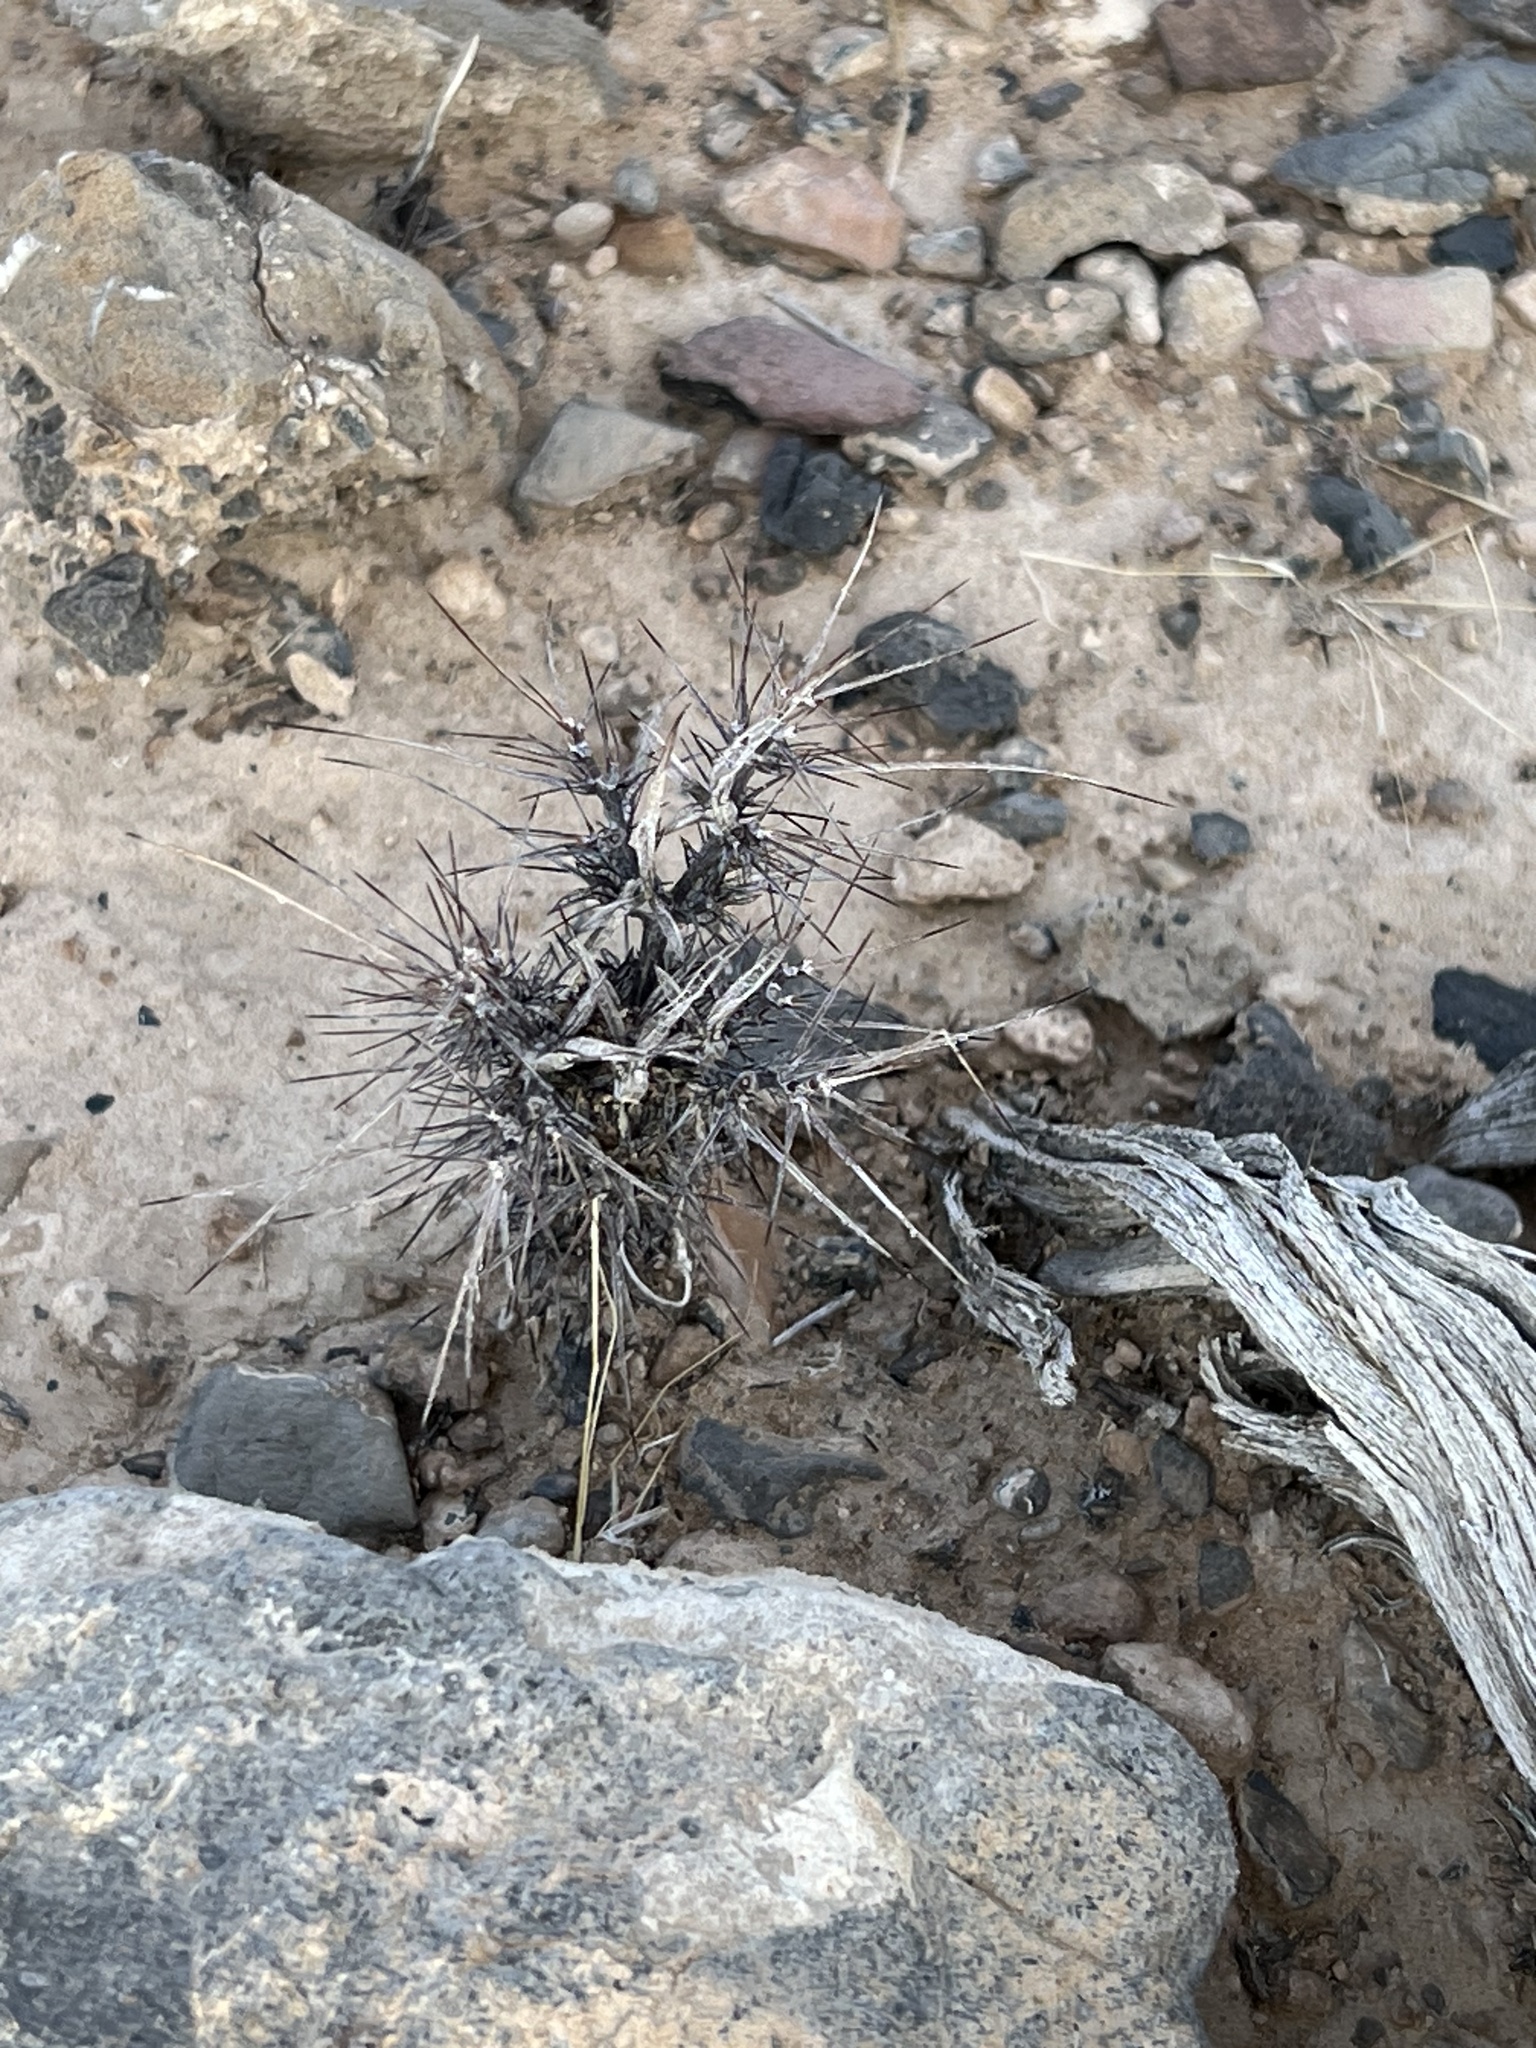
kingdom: Plantae
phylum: Tracheophyta
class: Magnoliopsida
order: Caryophyllales
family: Polygonaceae
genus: Chorizanthe
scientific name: Chorizanthe rigida
